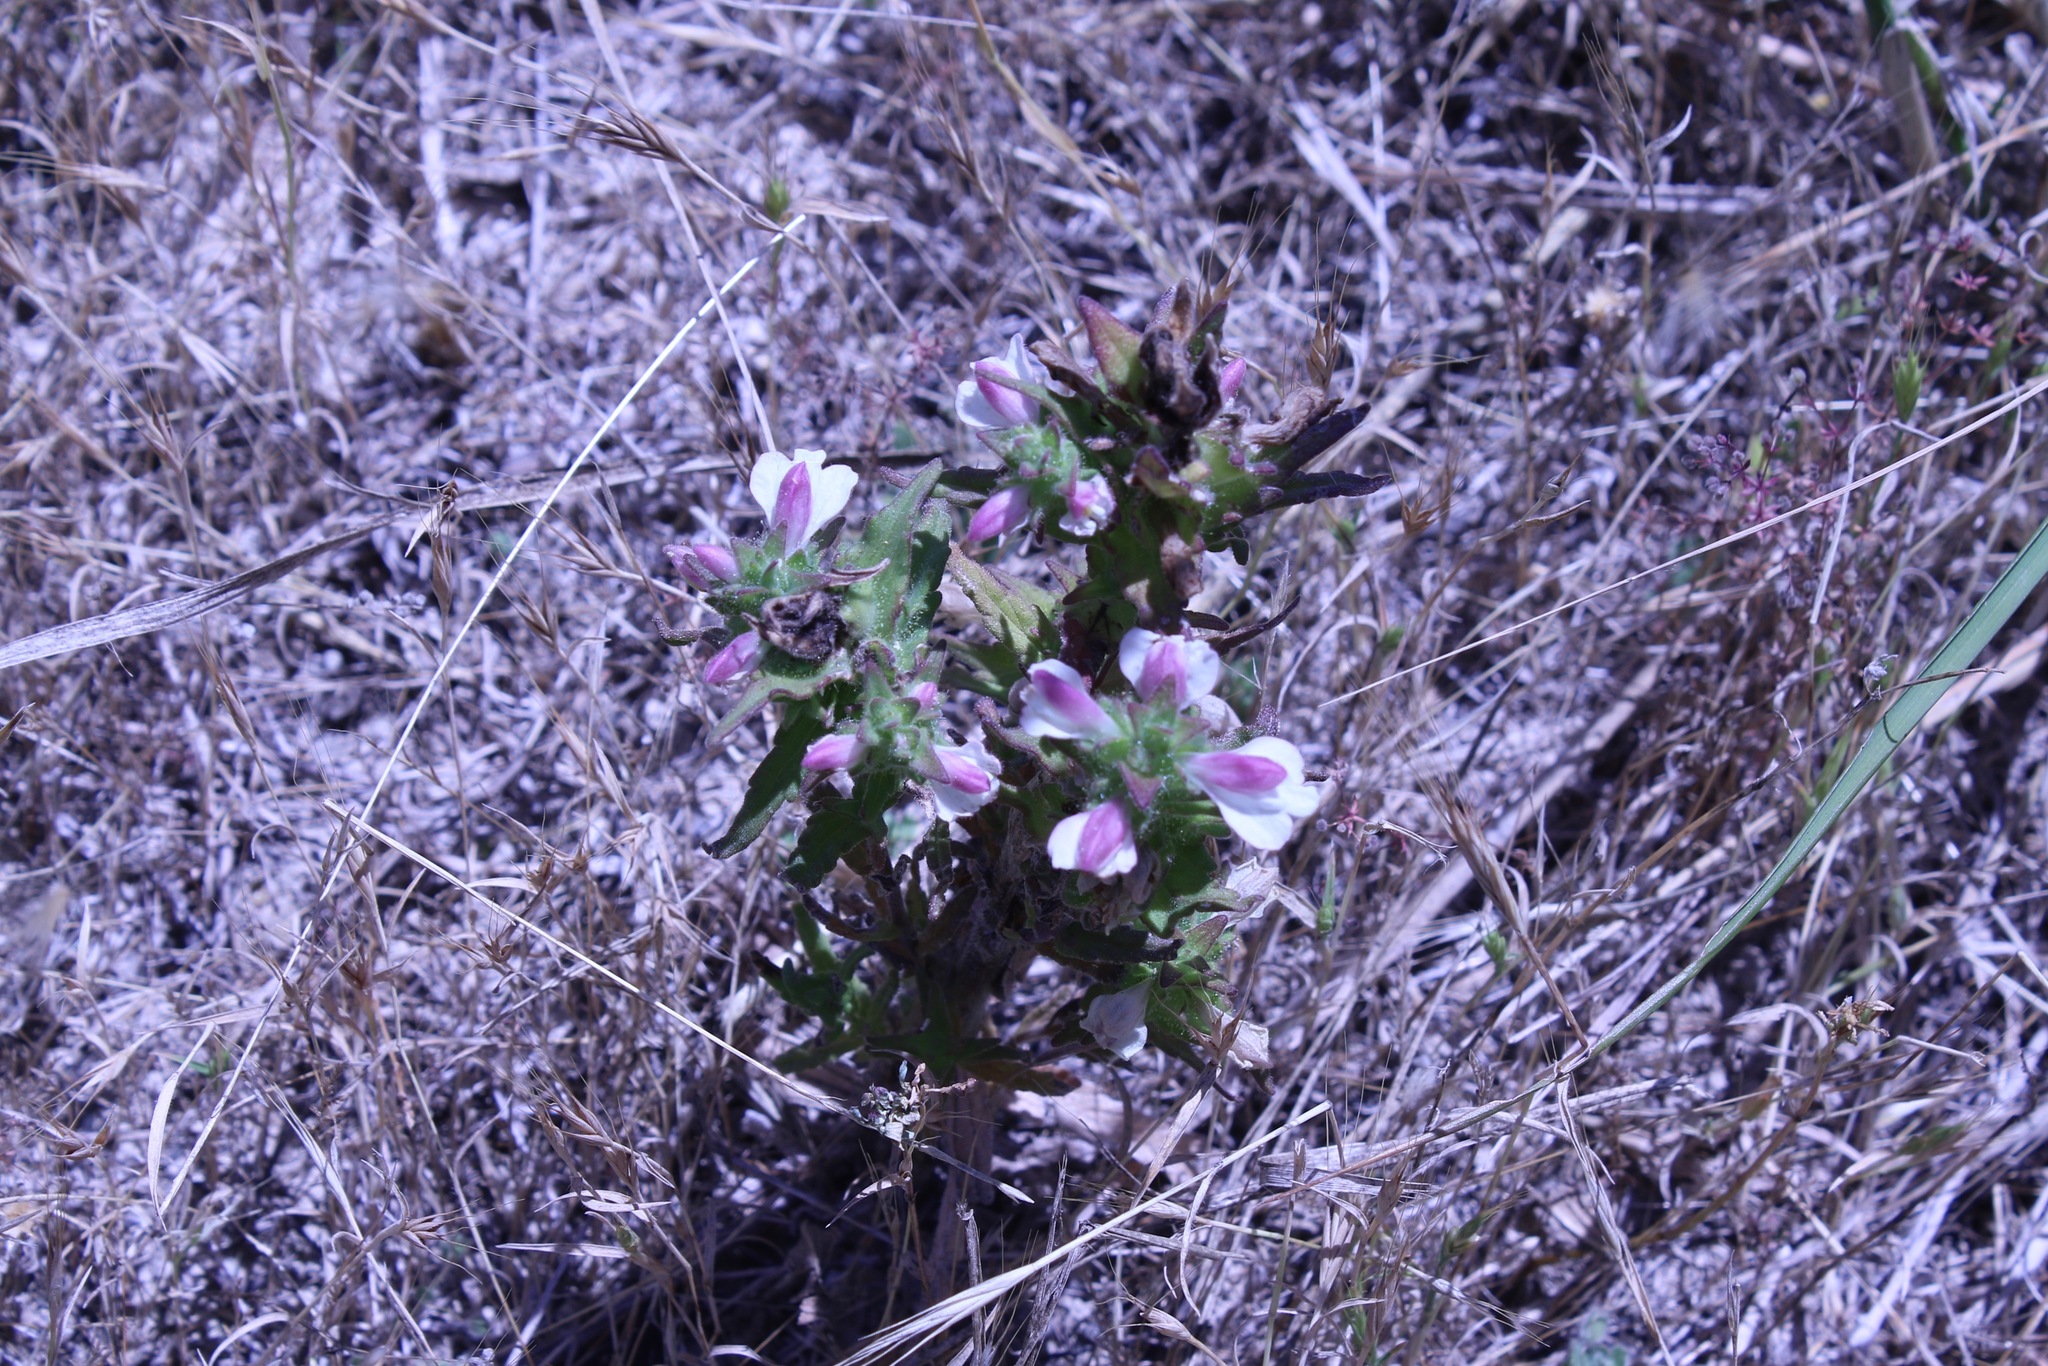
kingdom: Plantae
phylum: Tracheophyta
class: Magnoliopsida
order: Lamiales
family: Orobanchaceae
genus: Bellardia
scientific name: Bellardia trixago
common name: Mediterranean lineseed
